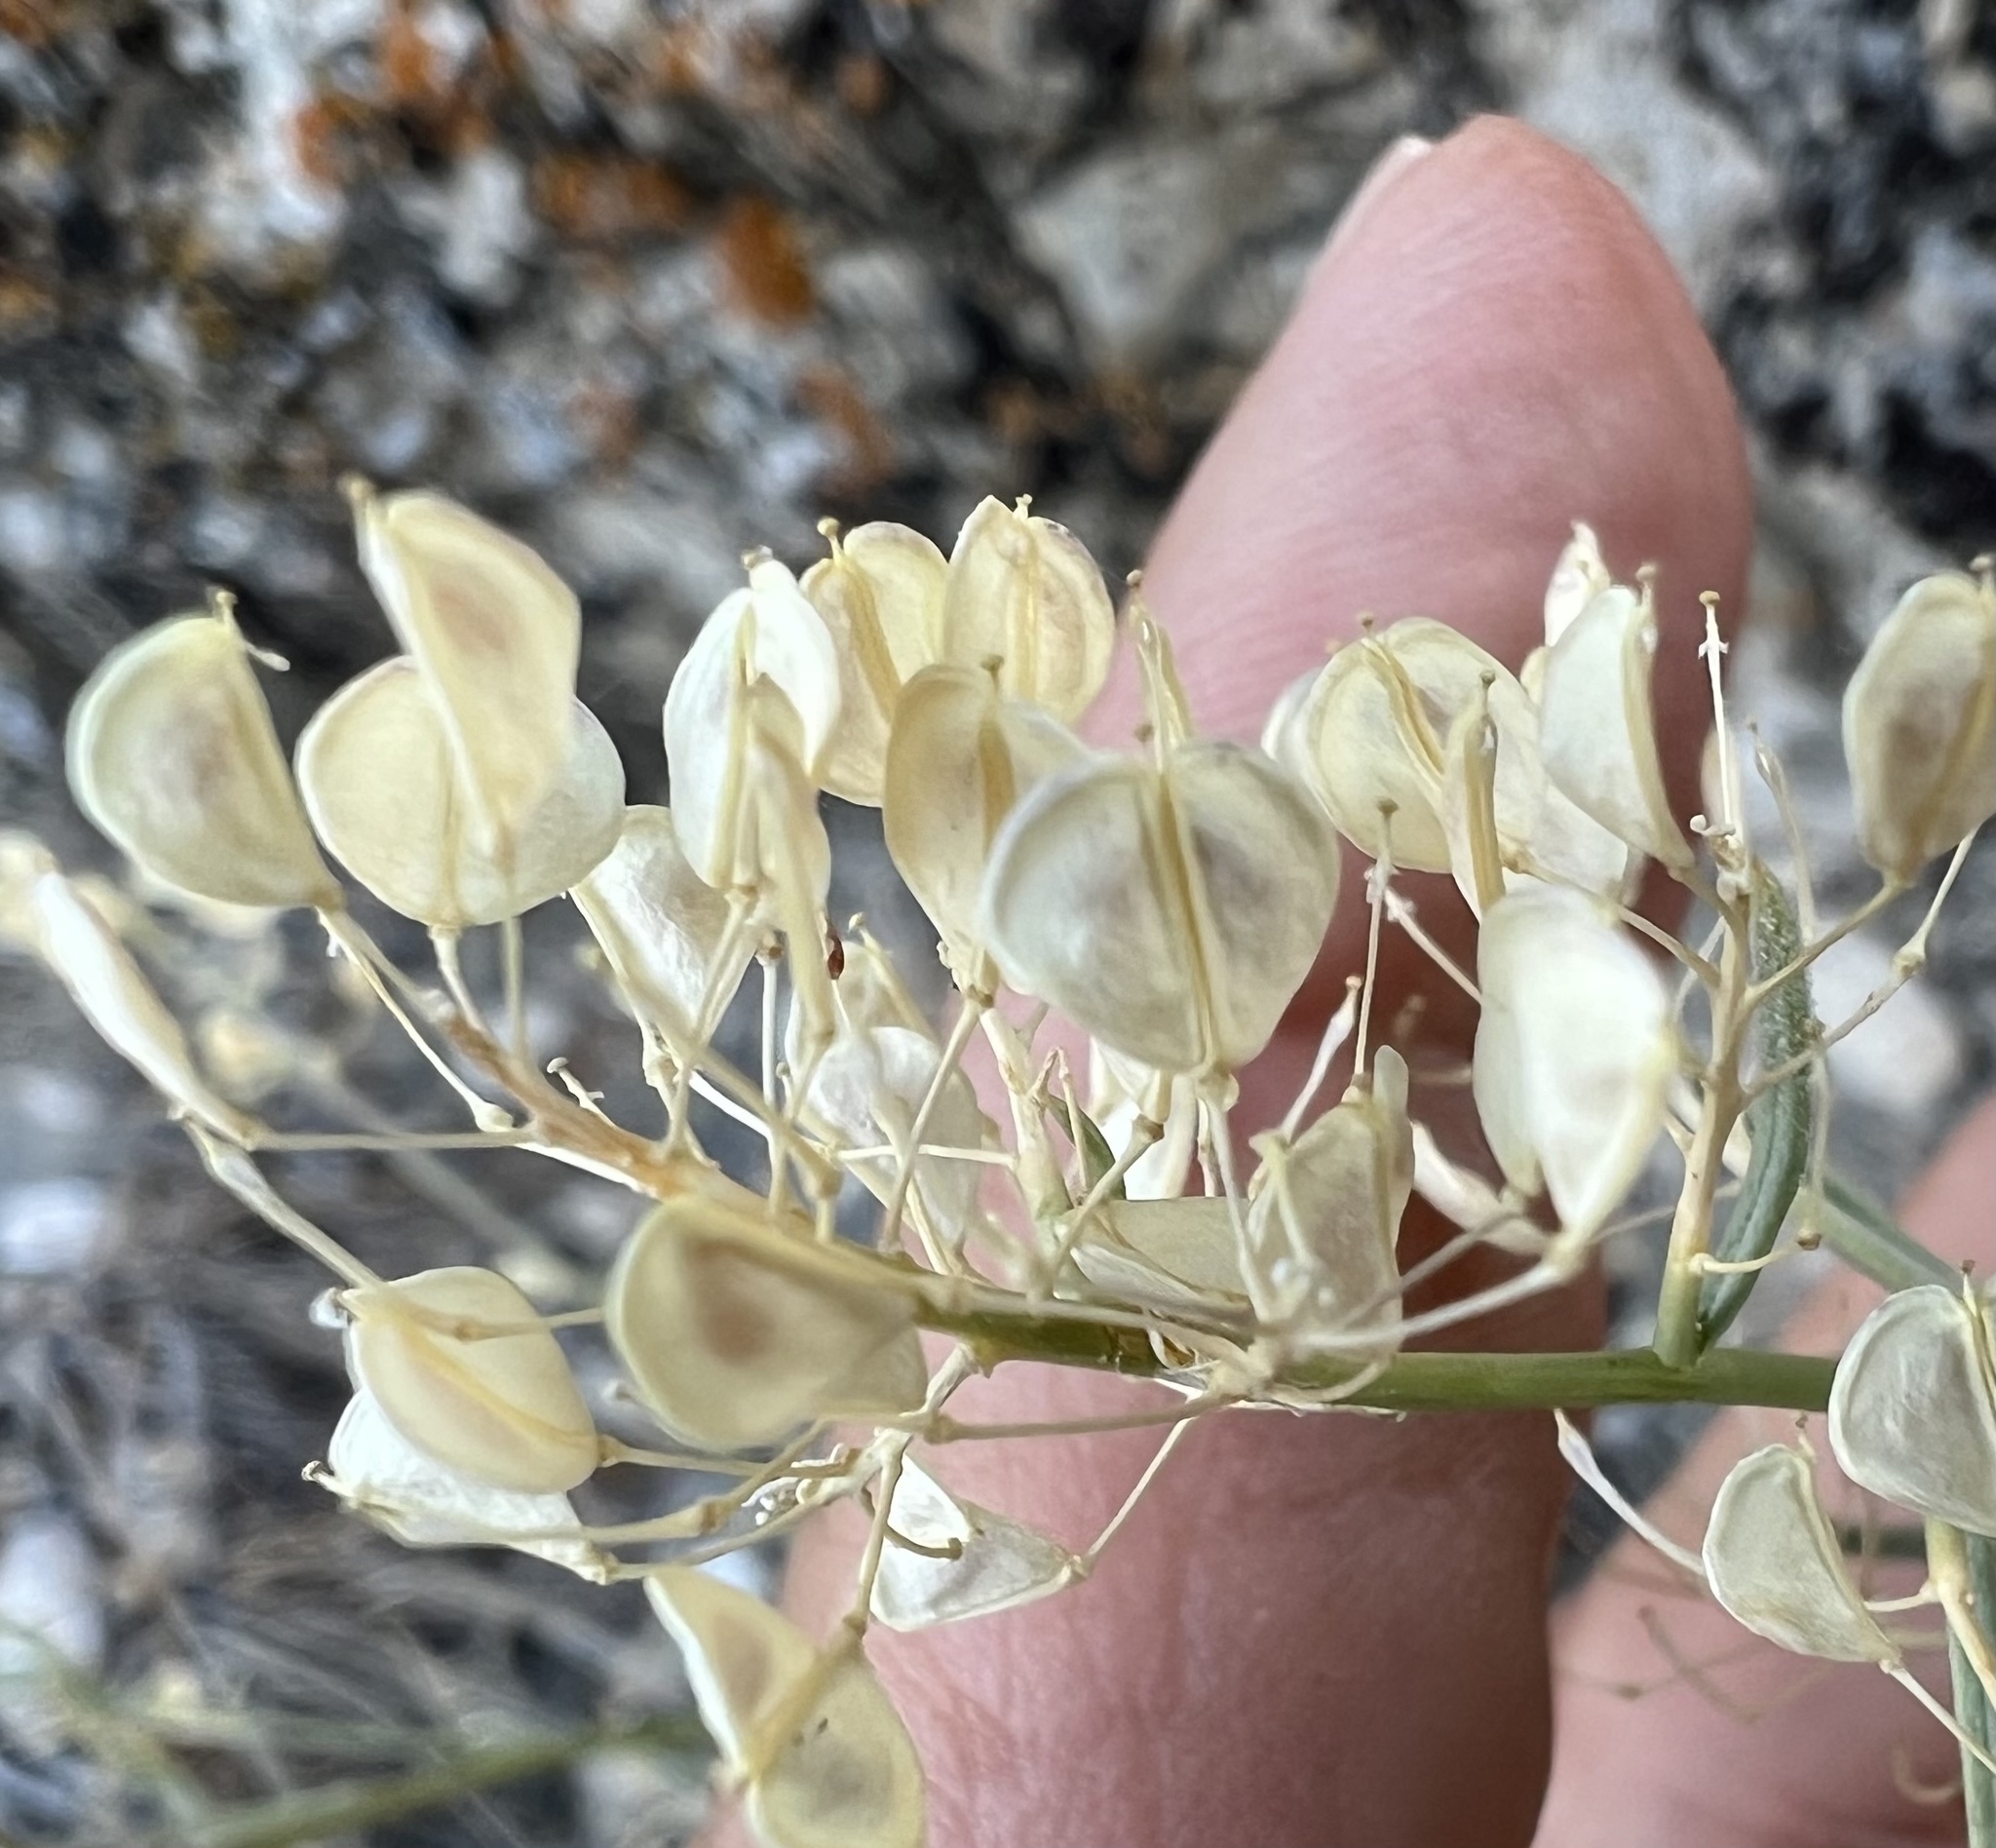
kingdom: Plantae
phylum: Tracheophyta
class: Magnoliopsida
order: Brassicales
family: Brassicaceae
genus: Lepidium
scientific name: Lepidium fremontii
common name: Fremont's pepperwort
